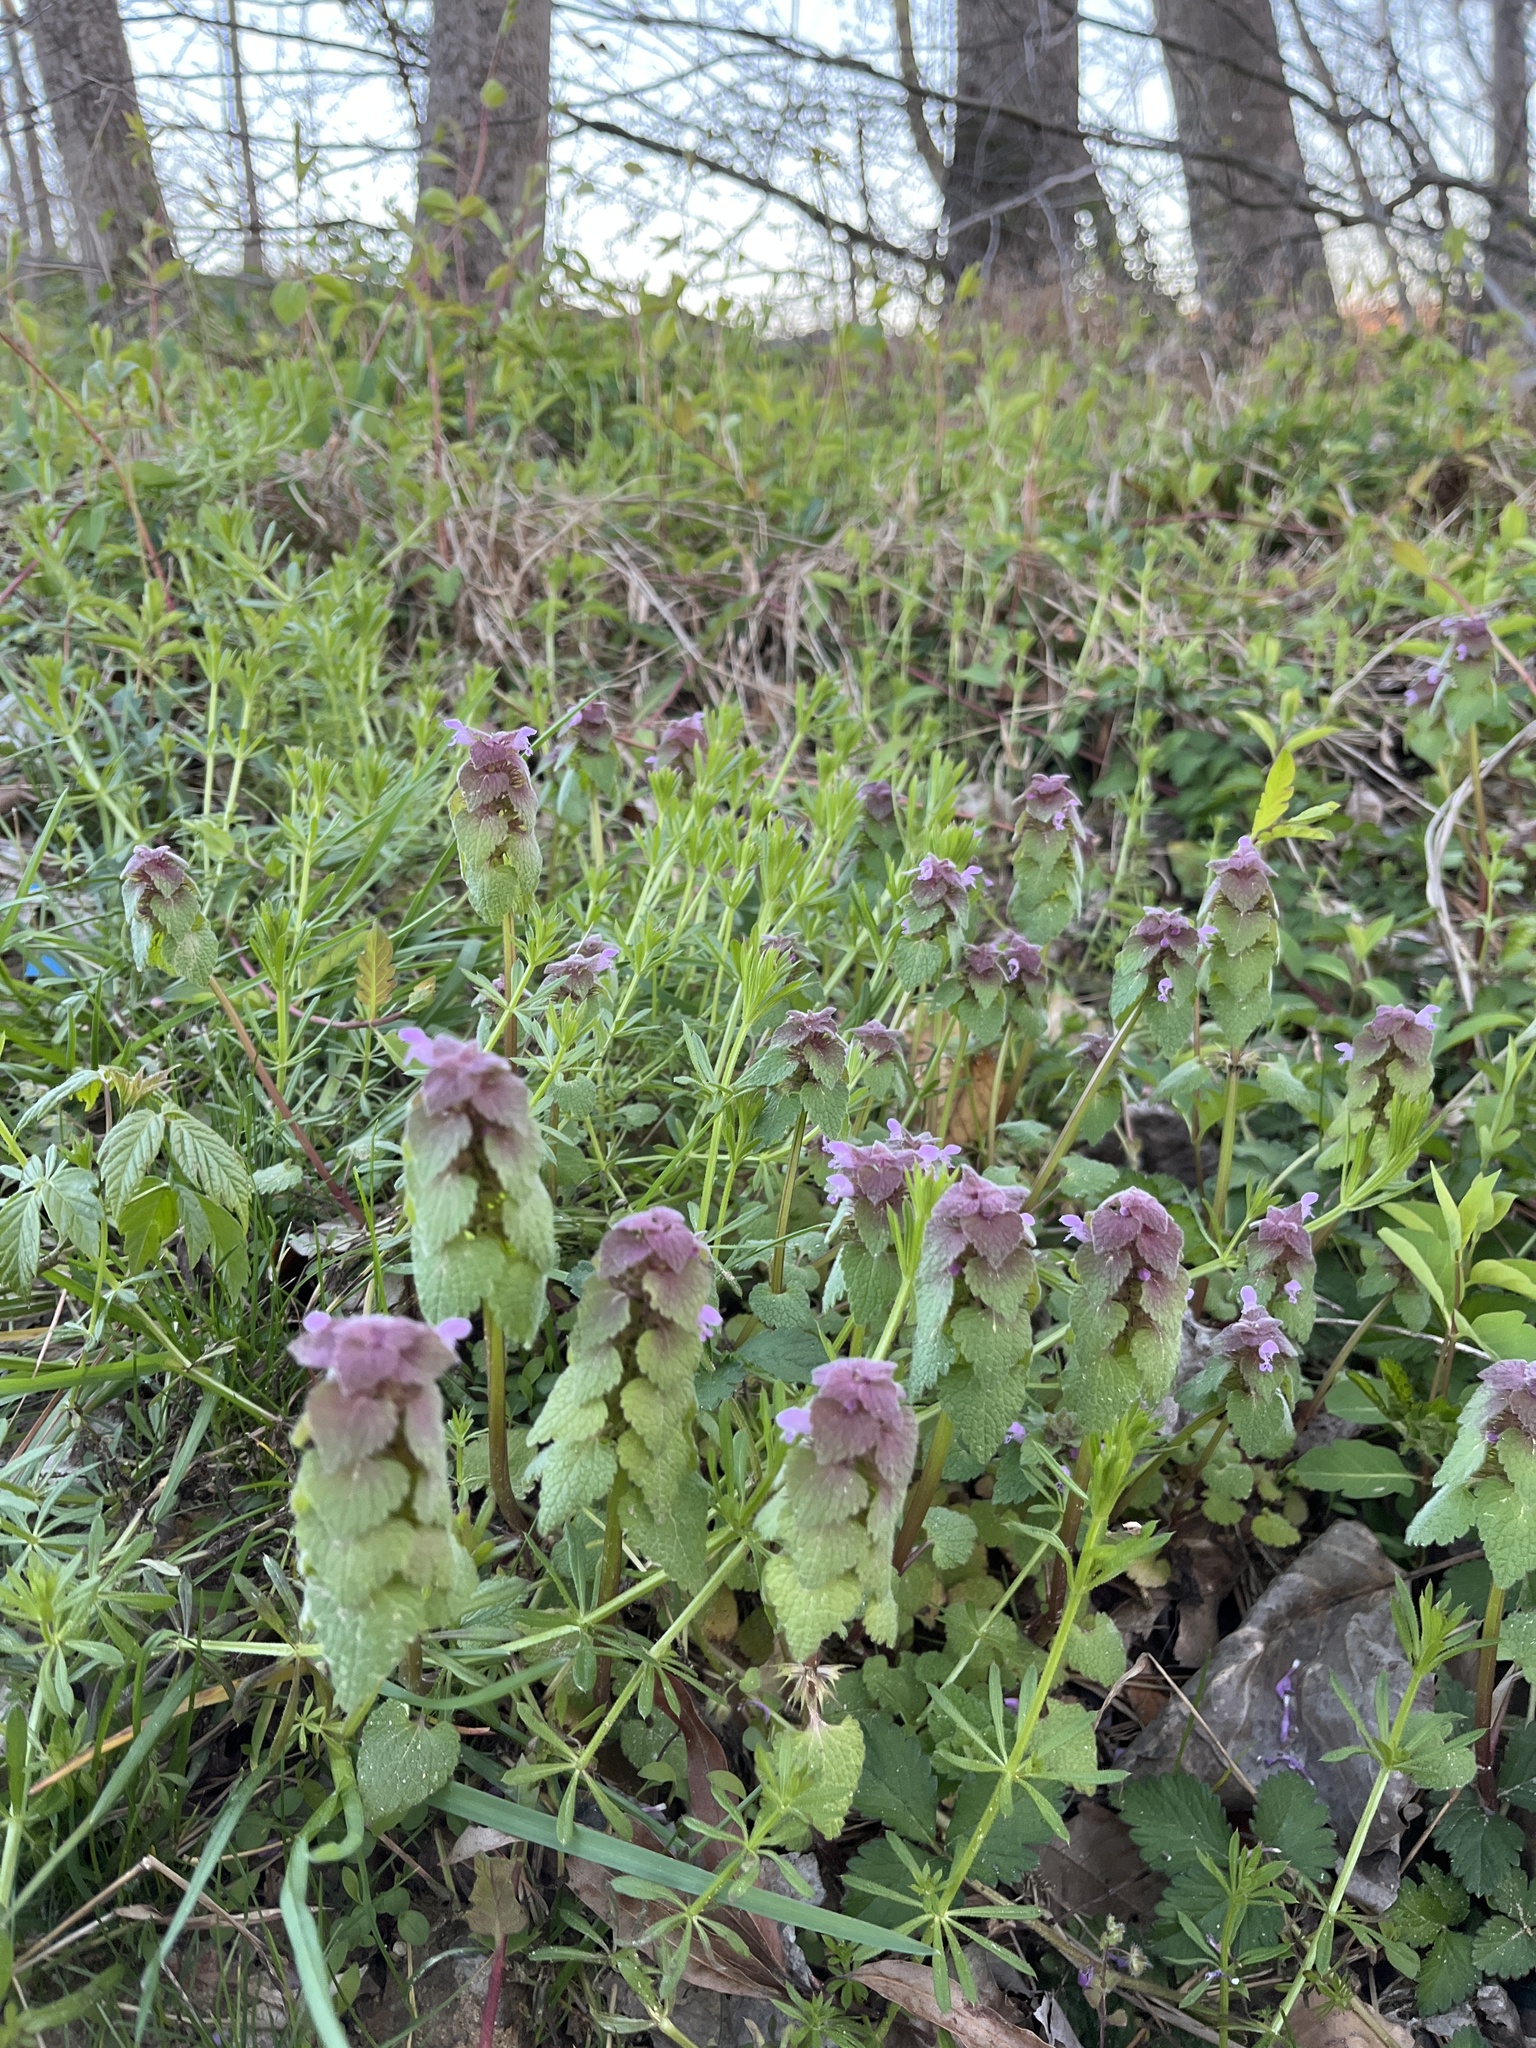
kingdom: Plantae
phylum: Tracheophyta
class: Magnoliopsida
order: Lamiales
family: Lamiaceae
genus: Lamium
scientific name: Lamium purpureum
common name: Red dead-nettle
